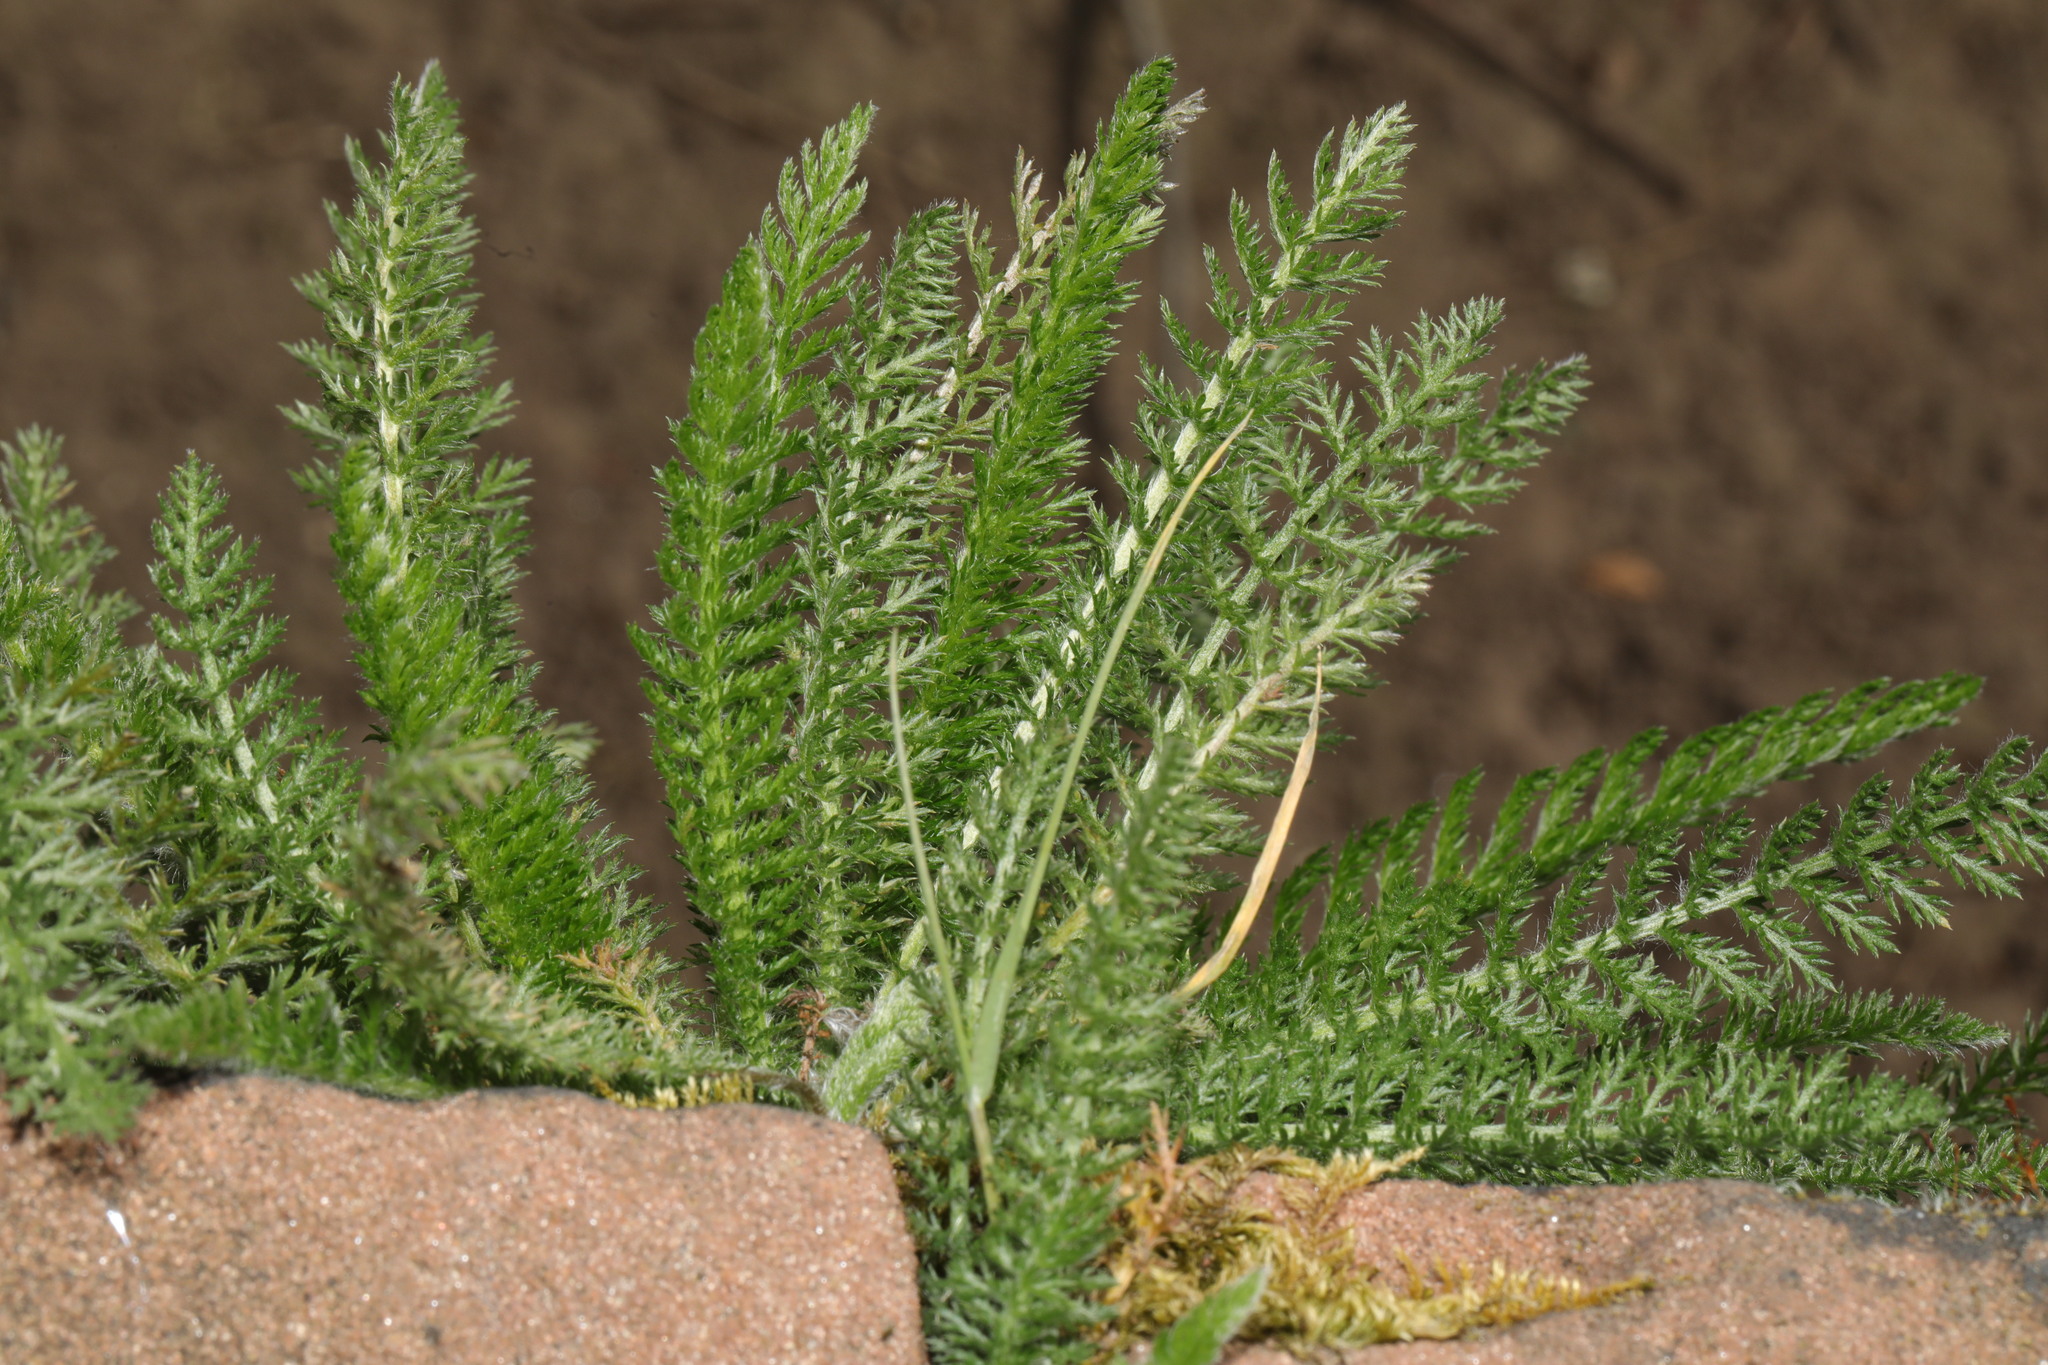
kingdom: Plantae
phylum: Tracheophyta
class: Magnoliopsida
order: Asterales
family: Asteraceae
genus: Achillea
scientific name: Achillea millefolium
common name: Yarrow
